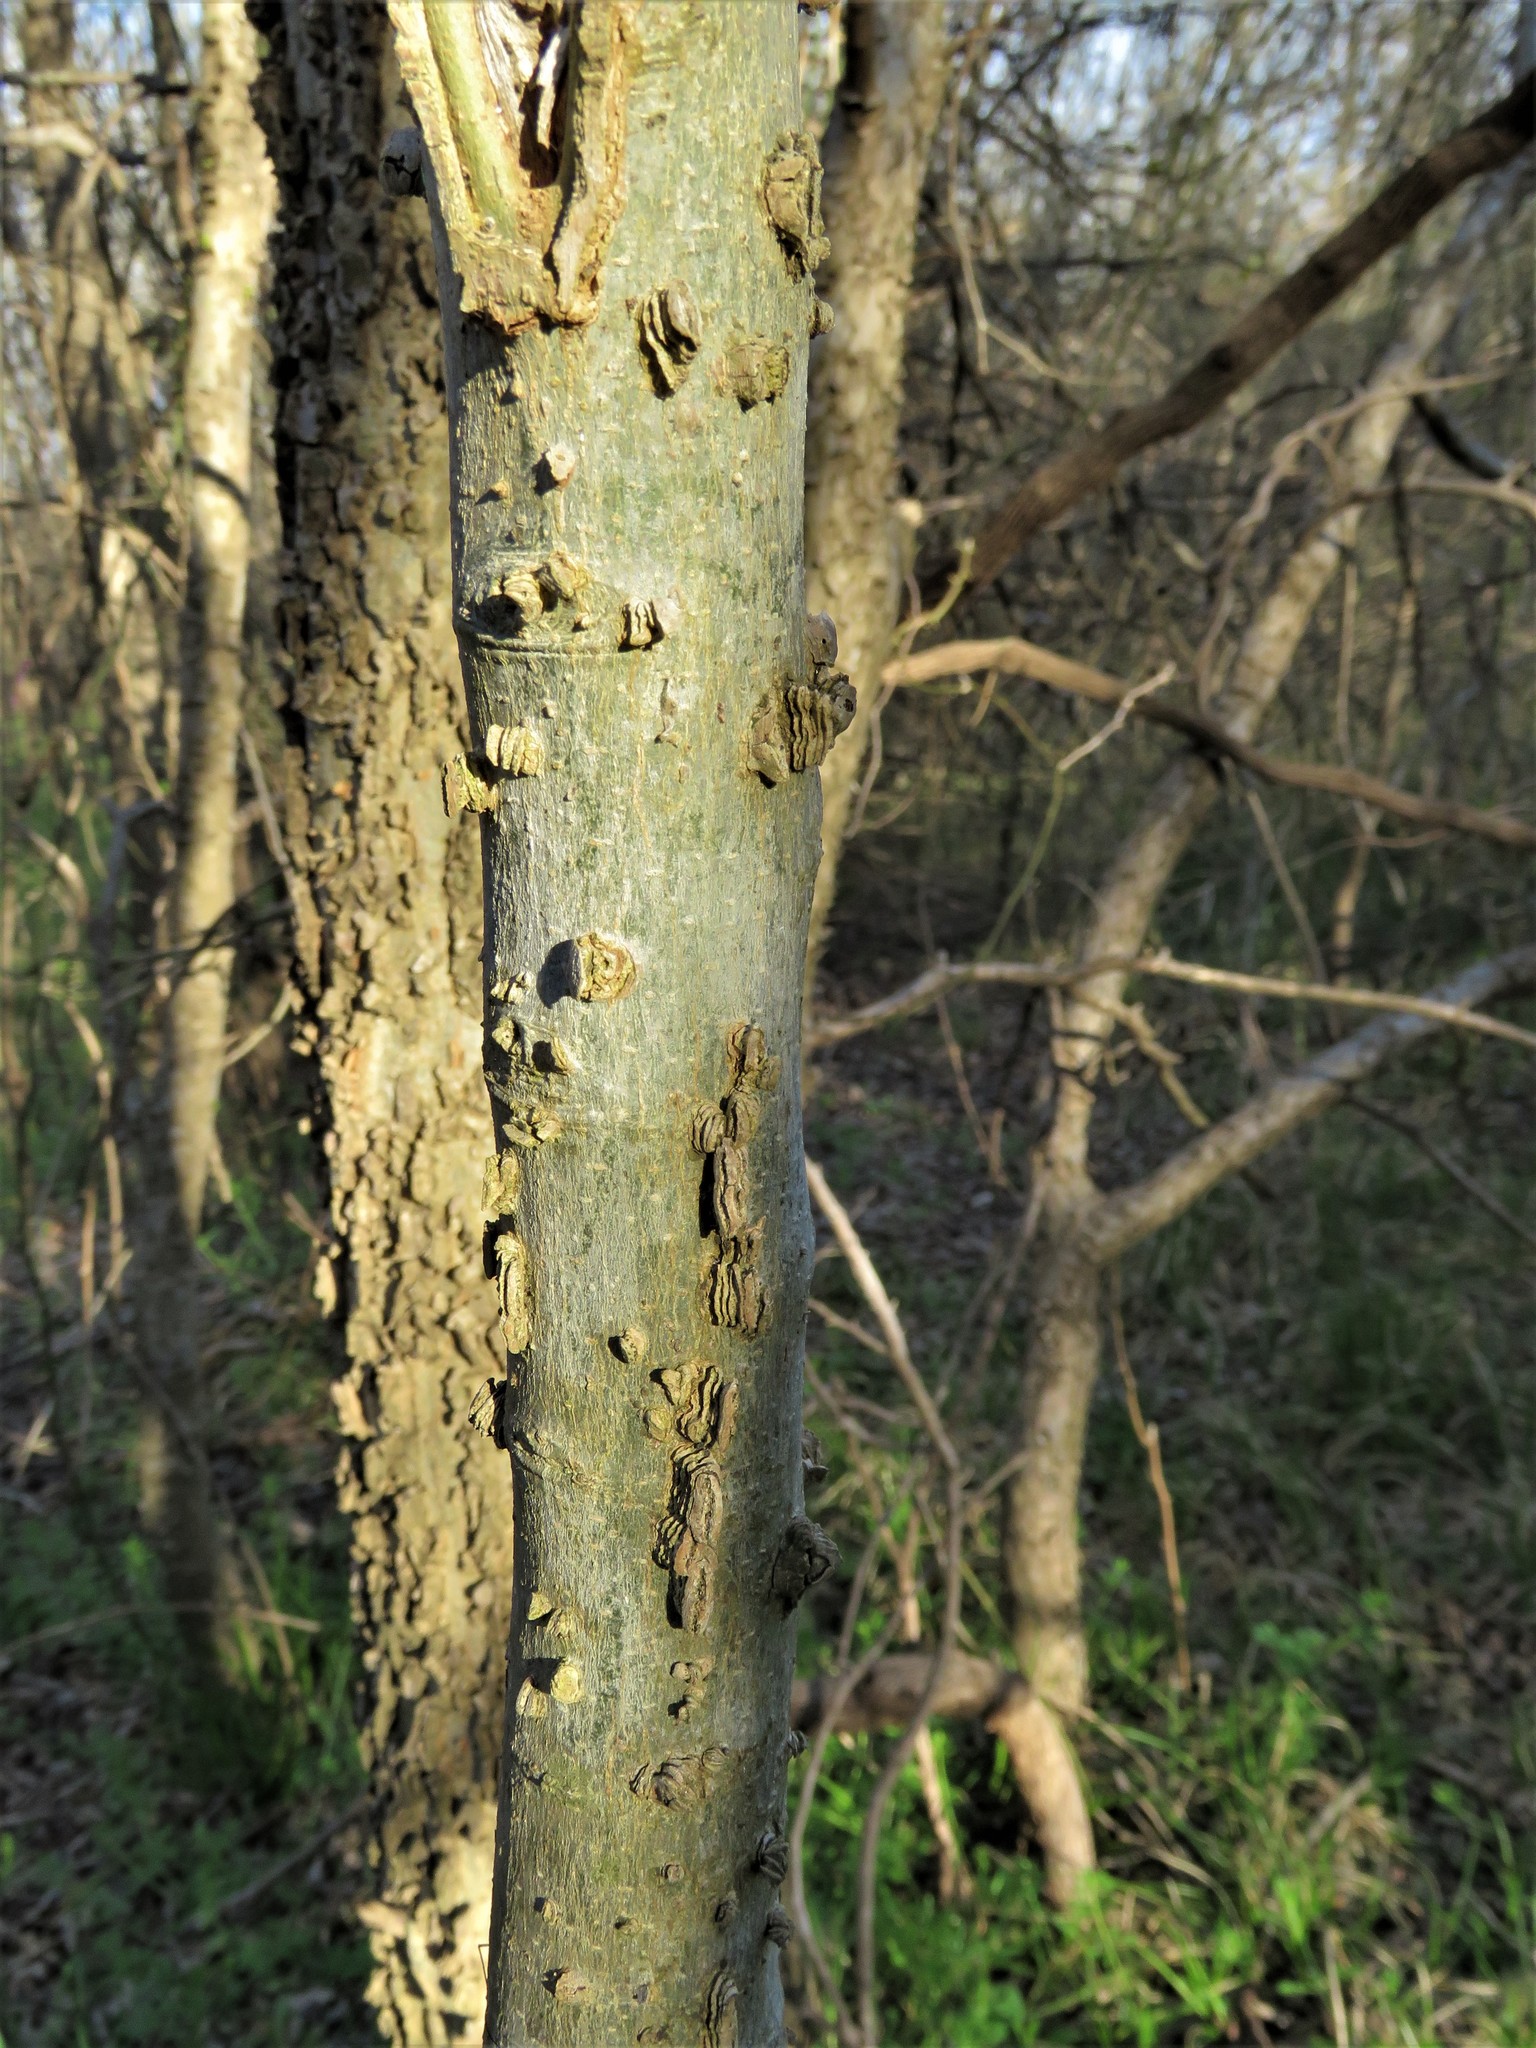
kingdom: Plantae
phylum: Tracheophyta
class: Magnoliopsida
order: Rosales
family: Cannabaceae
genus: Celtis
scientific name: Celtis laevigata
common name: Sugarberry
